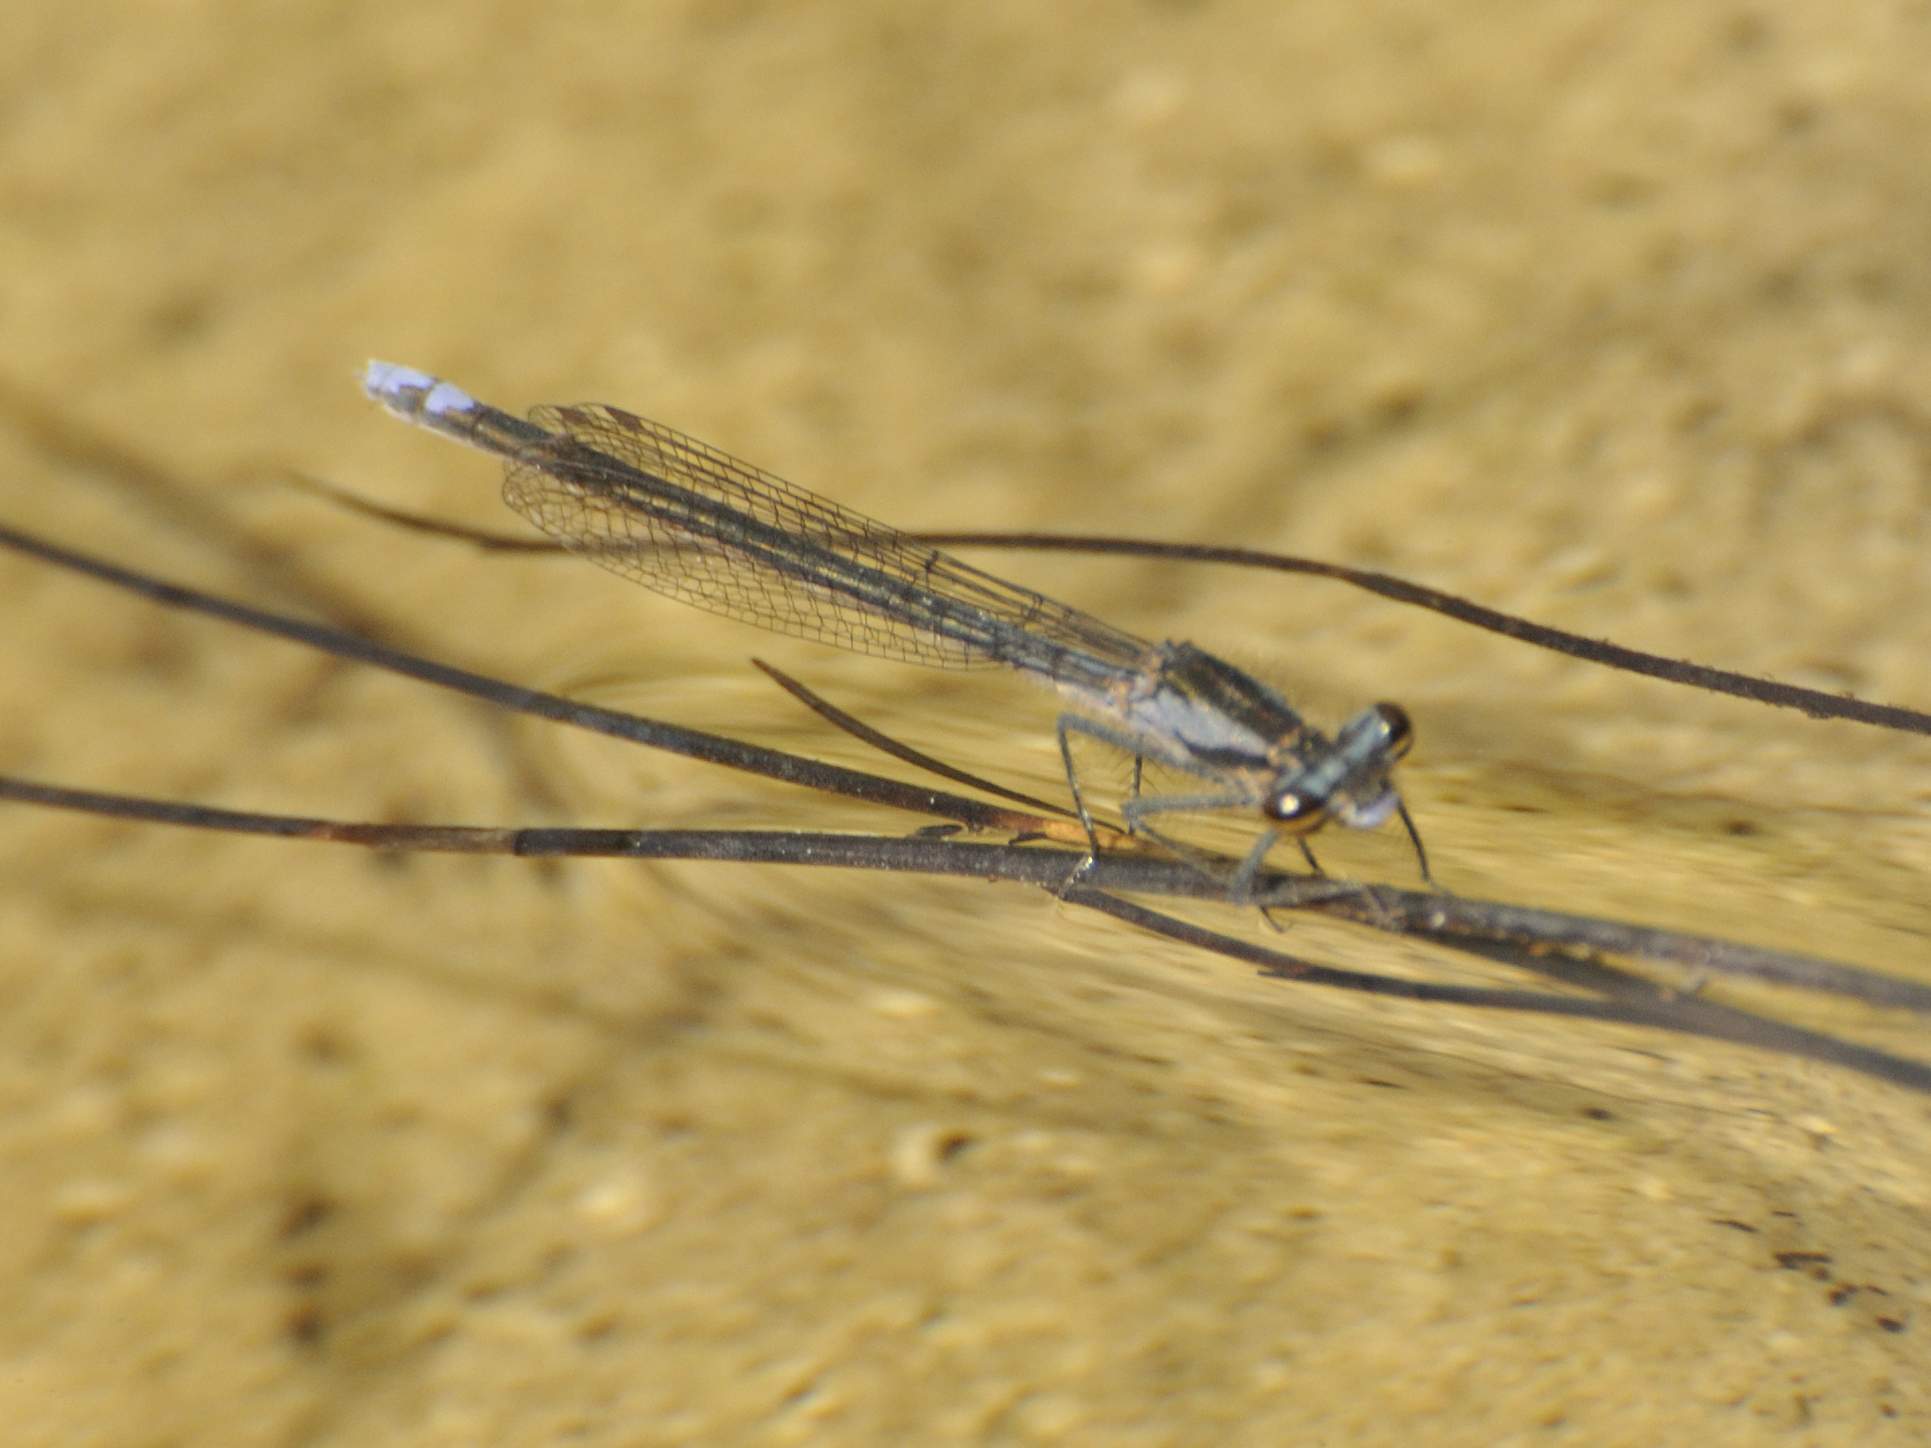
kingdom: Animalia
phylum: Arthropoda
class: Insecta
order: Odonata
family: Platycnemididae
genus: Spesbona
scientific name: Spesbona angusta
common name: Ceres featherlegs
